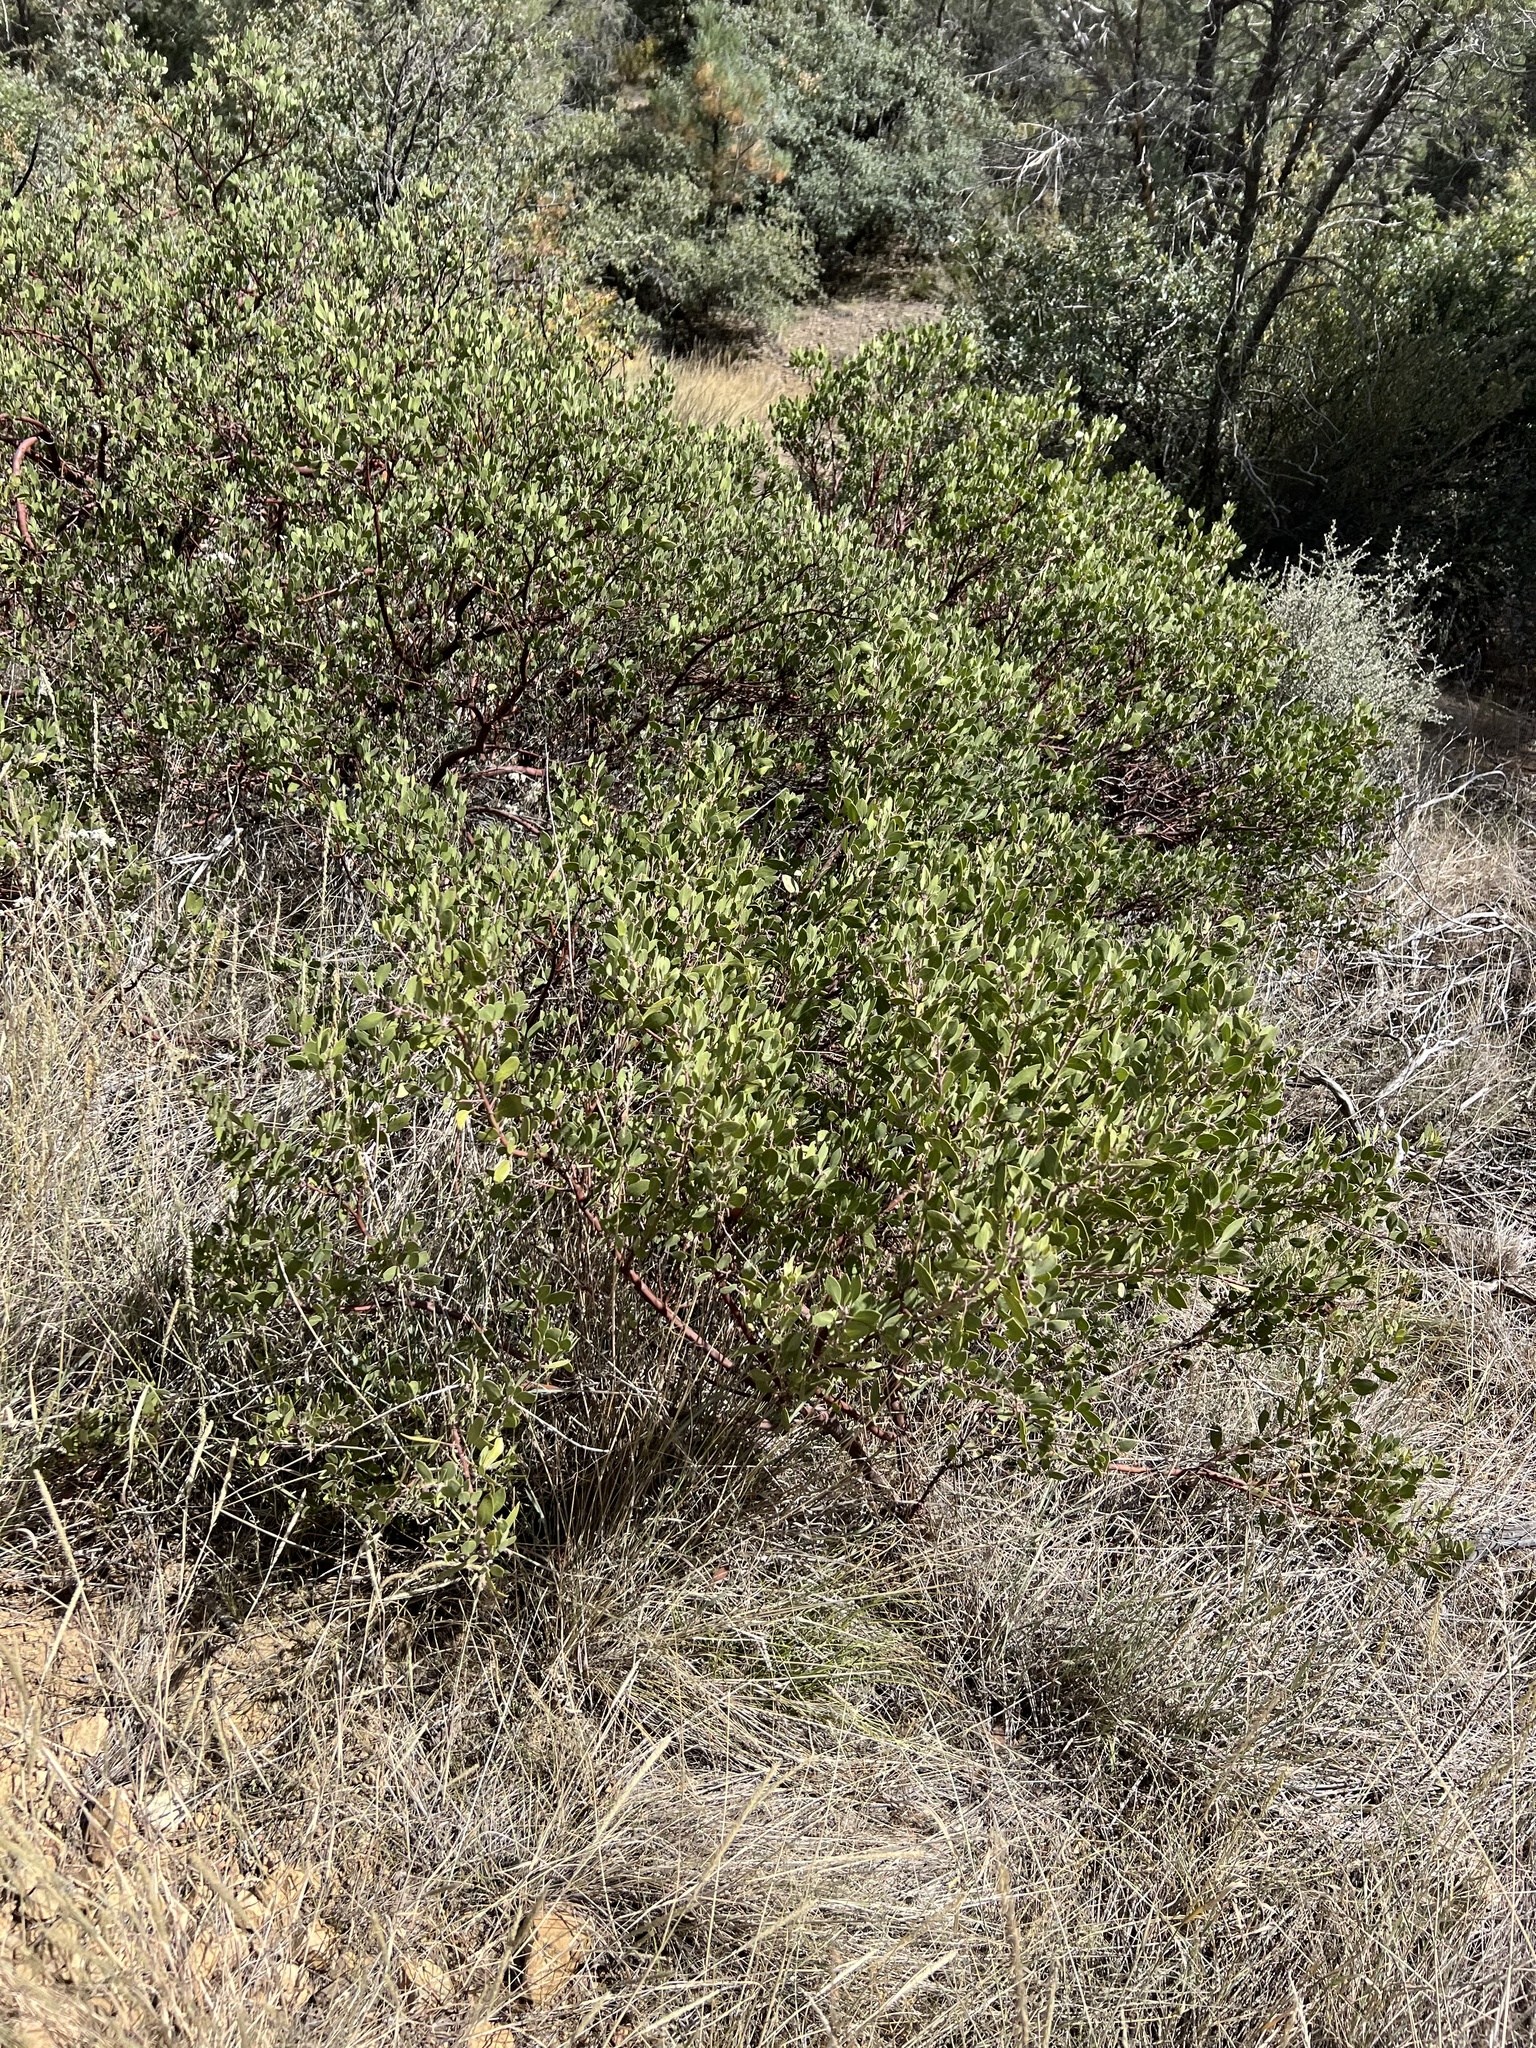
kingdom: Plantae
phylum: Tracheophyta
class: Magnoliopsida
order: Ericales
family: Ericaceae
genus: Arctostaphylos
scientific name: Arctostaphylos pungens
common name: Mexican manzanita
